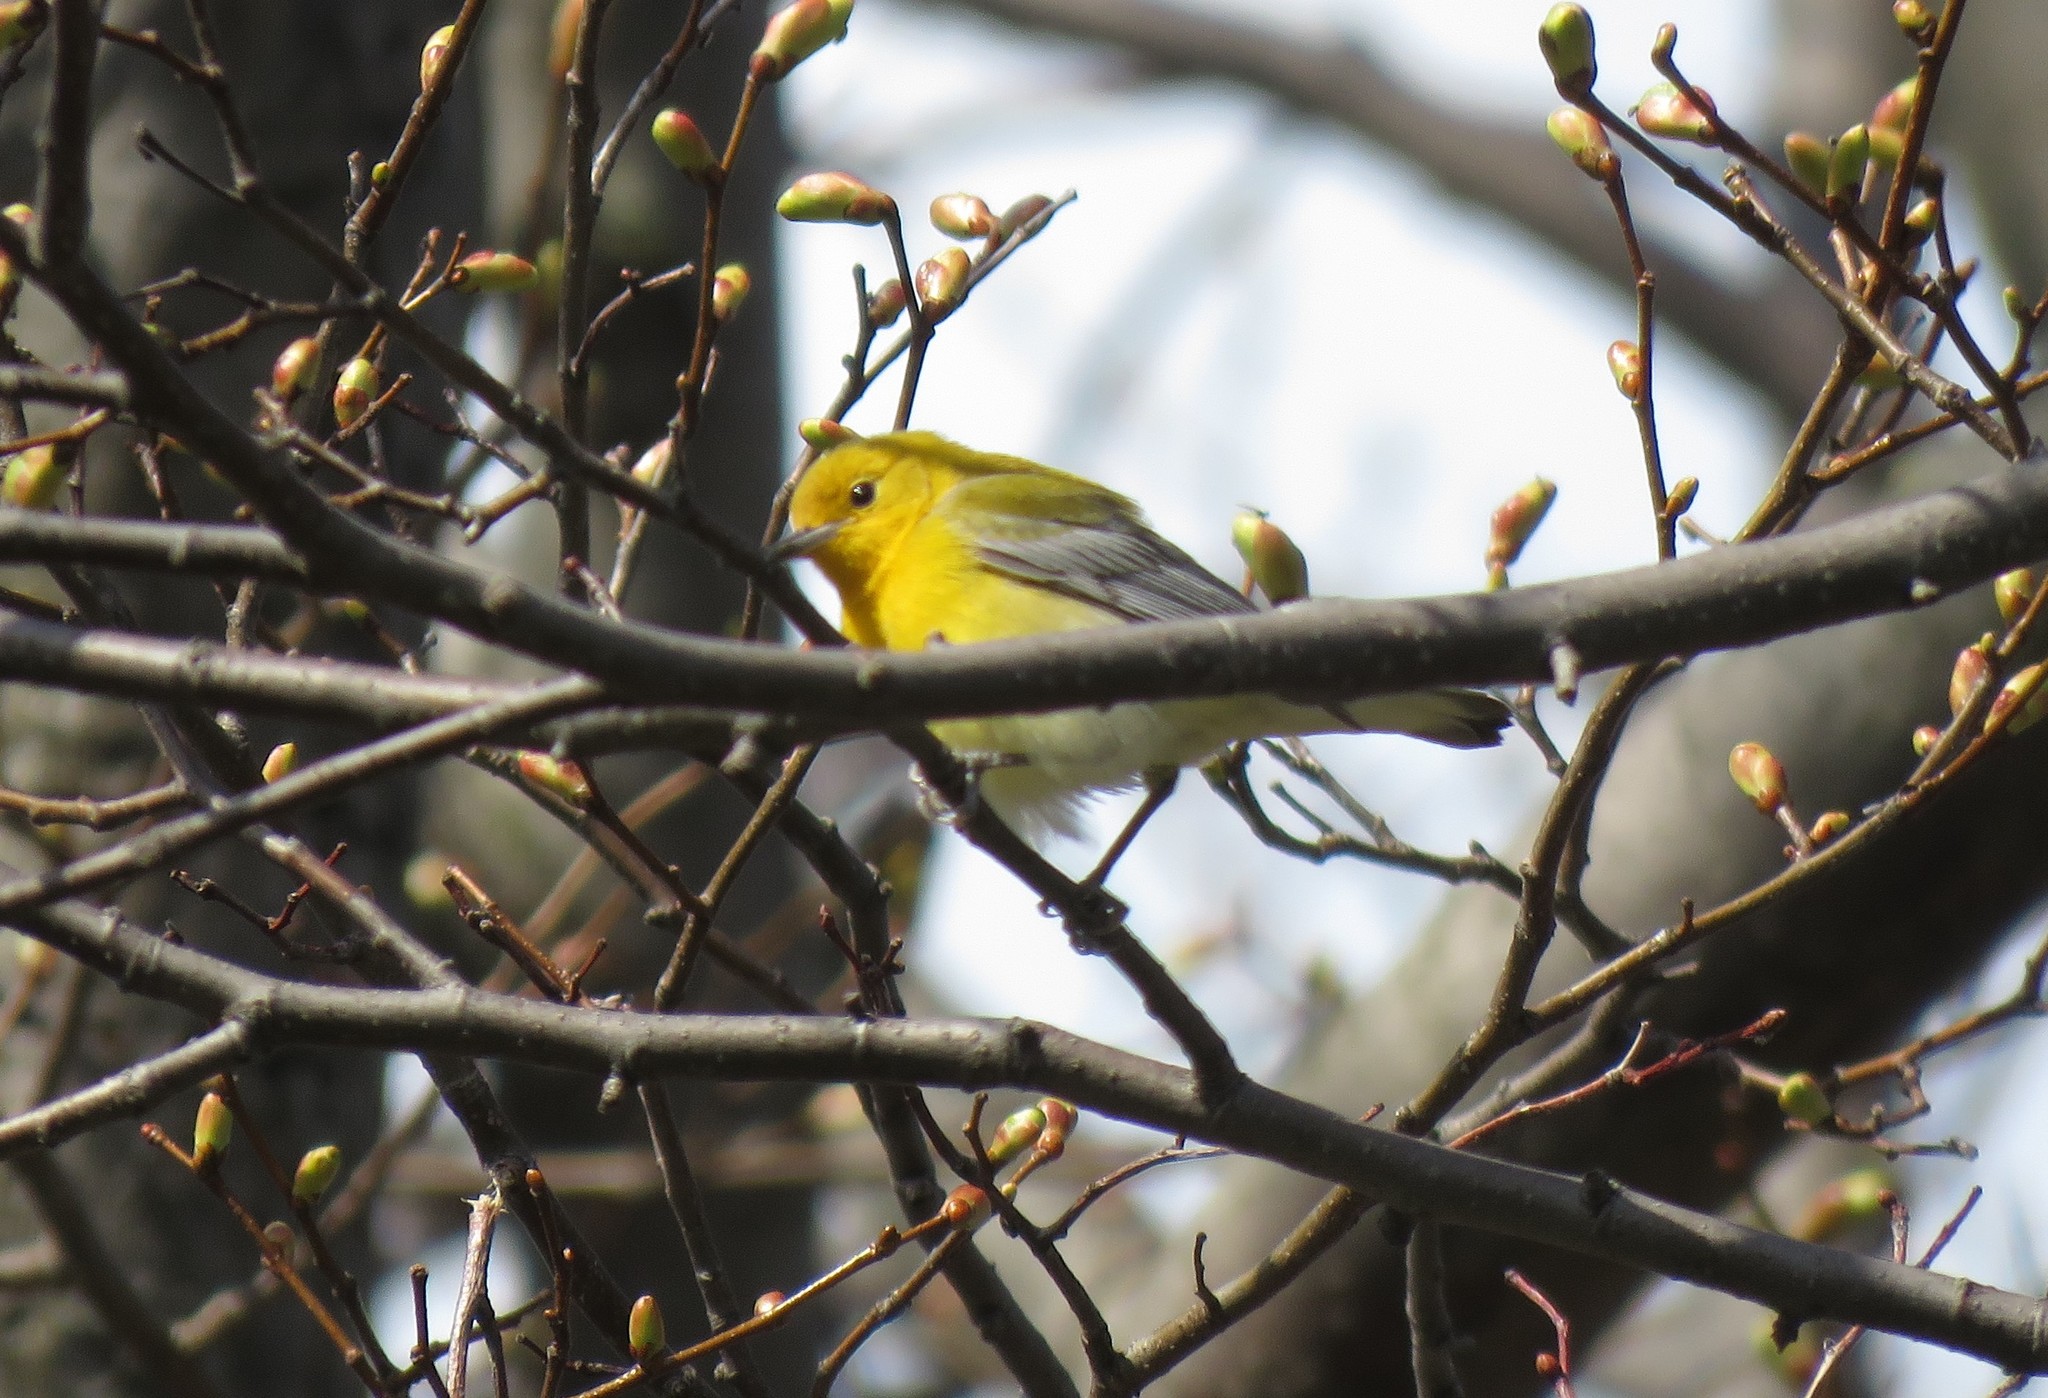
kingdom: Animalia
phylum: Chordata
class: Aves
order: Passeriformes
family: Parulidae
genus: Protonotaria
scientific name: Protonotaria citrea
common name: Prothonotary warbler
